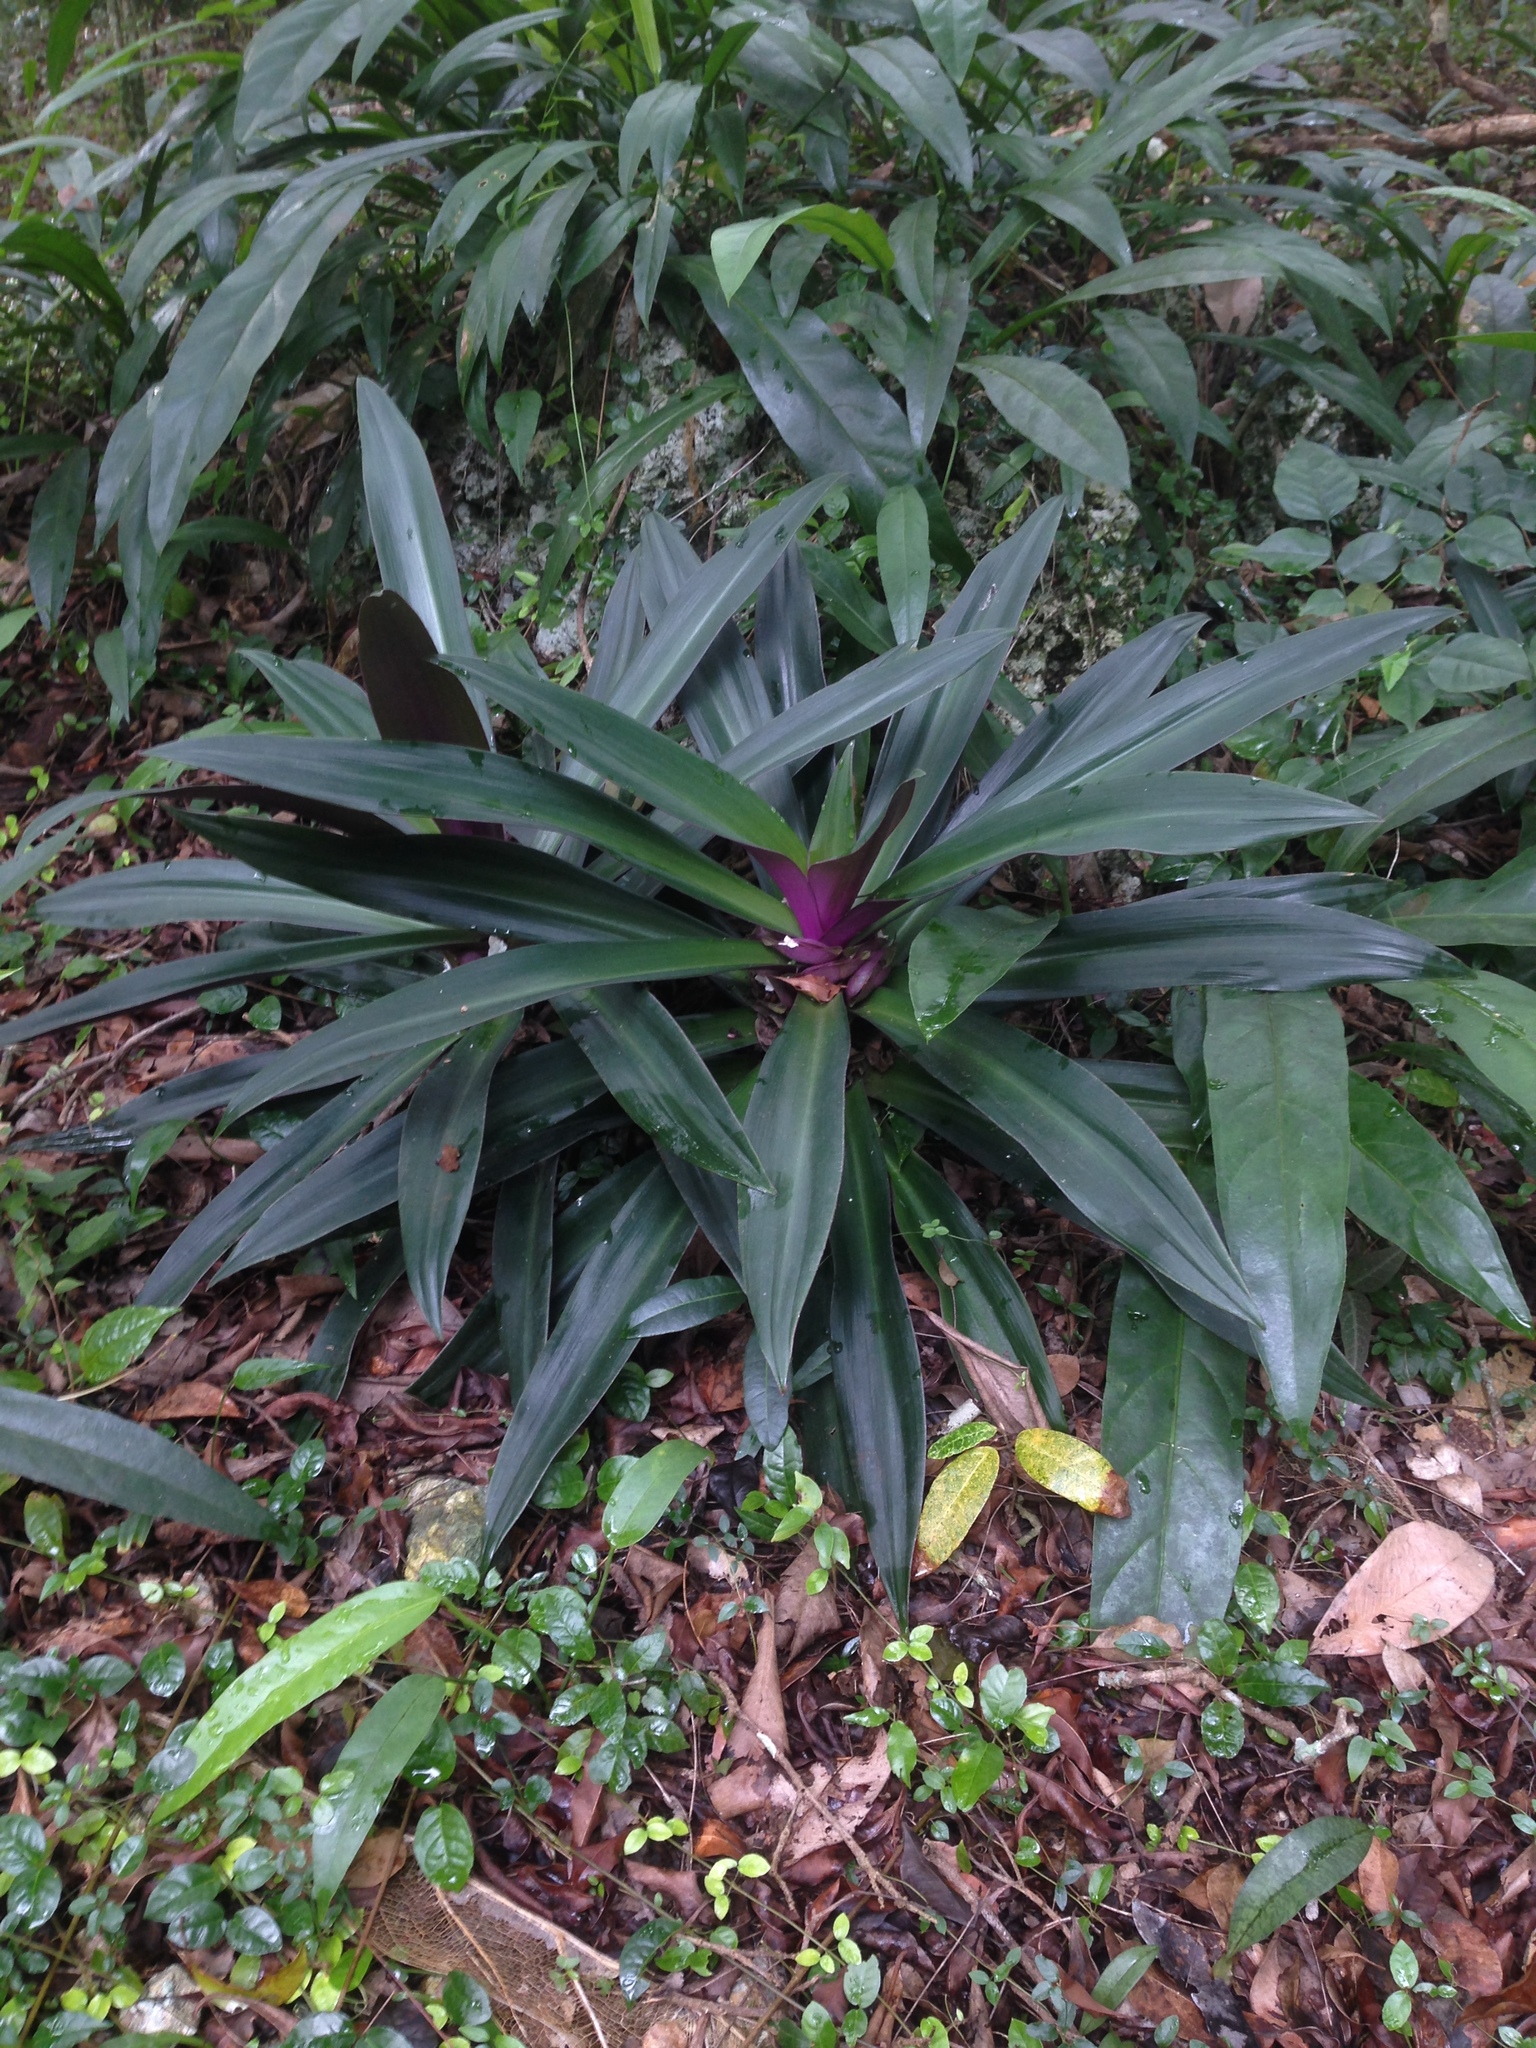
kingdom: Plantae
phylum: Tracheophyta
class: Liliopsida
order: Commelinales
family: Commelinaceae
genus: Tradescantia
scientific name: Tradescantia spathacea
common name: Boatlily
